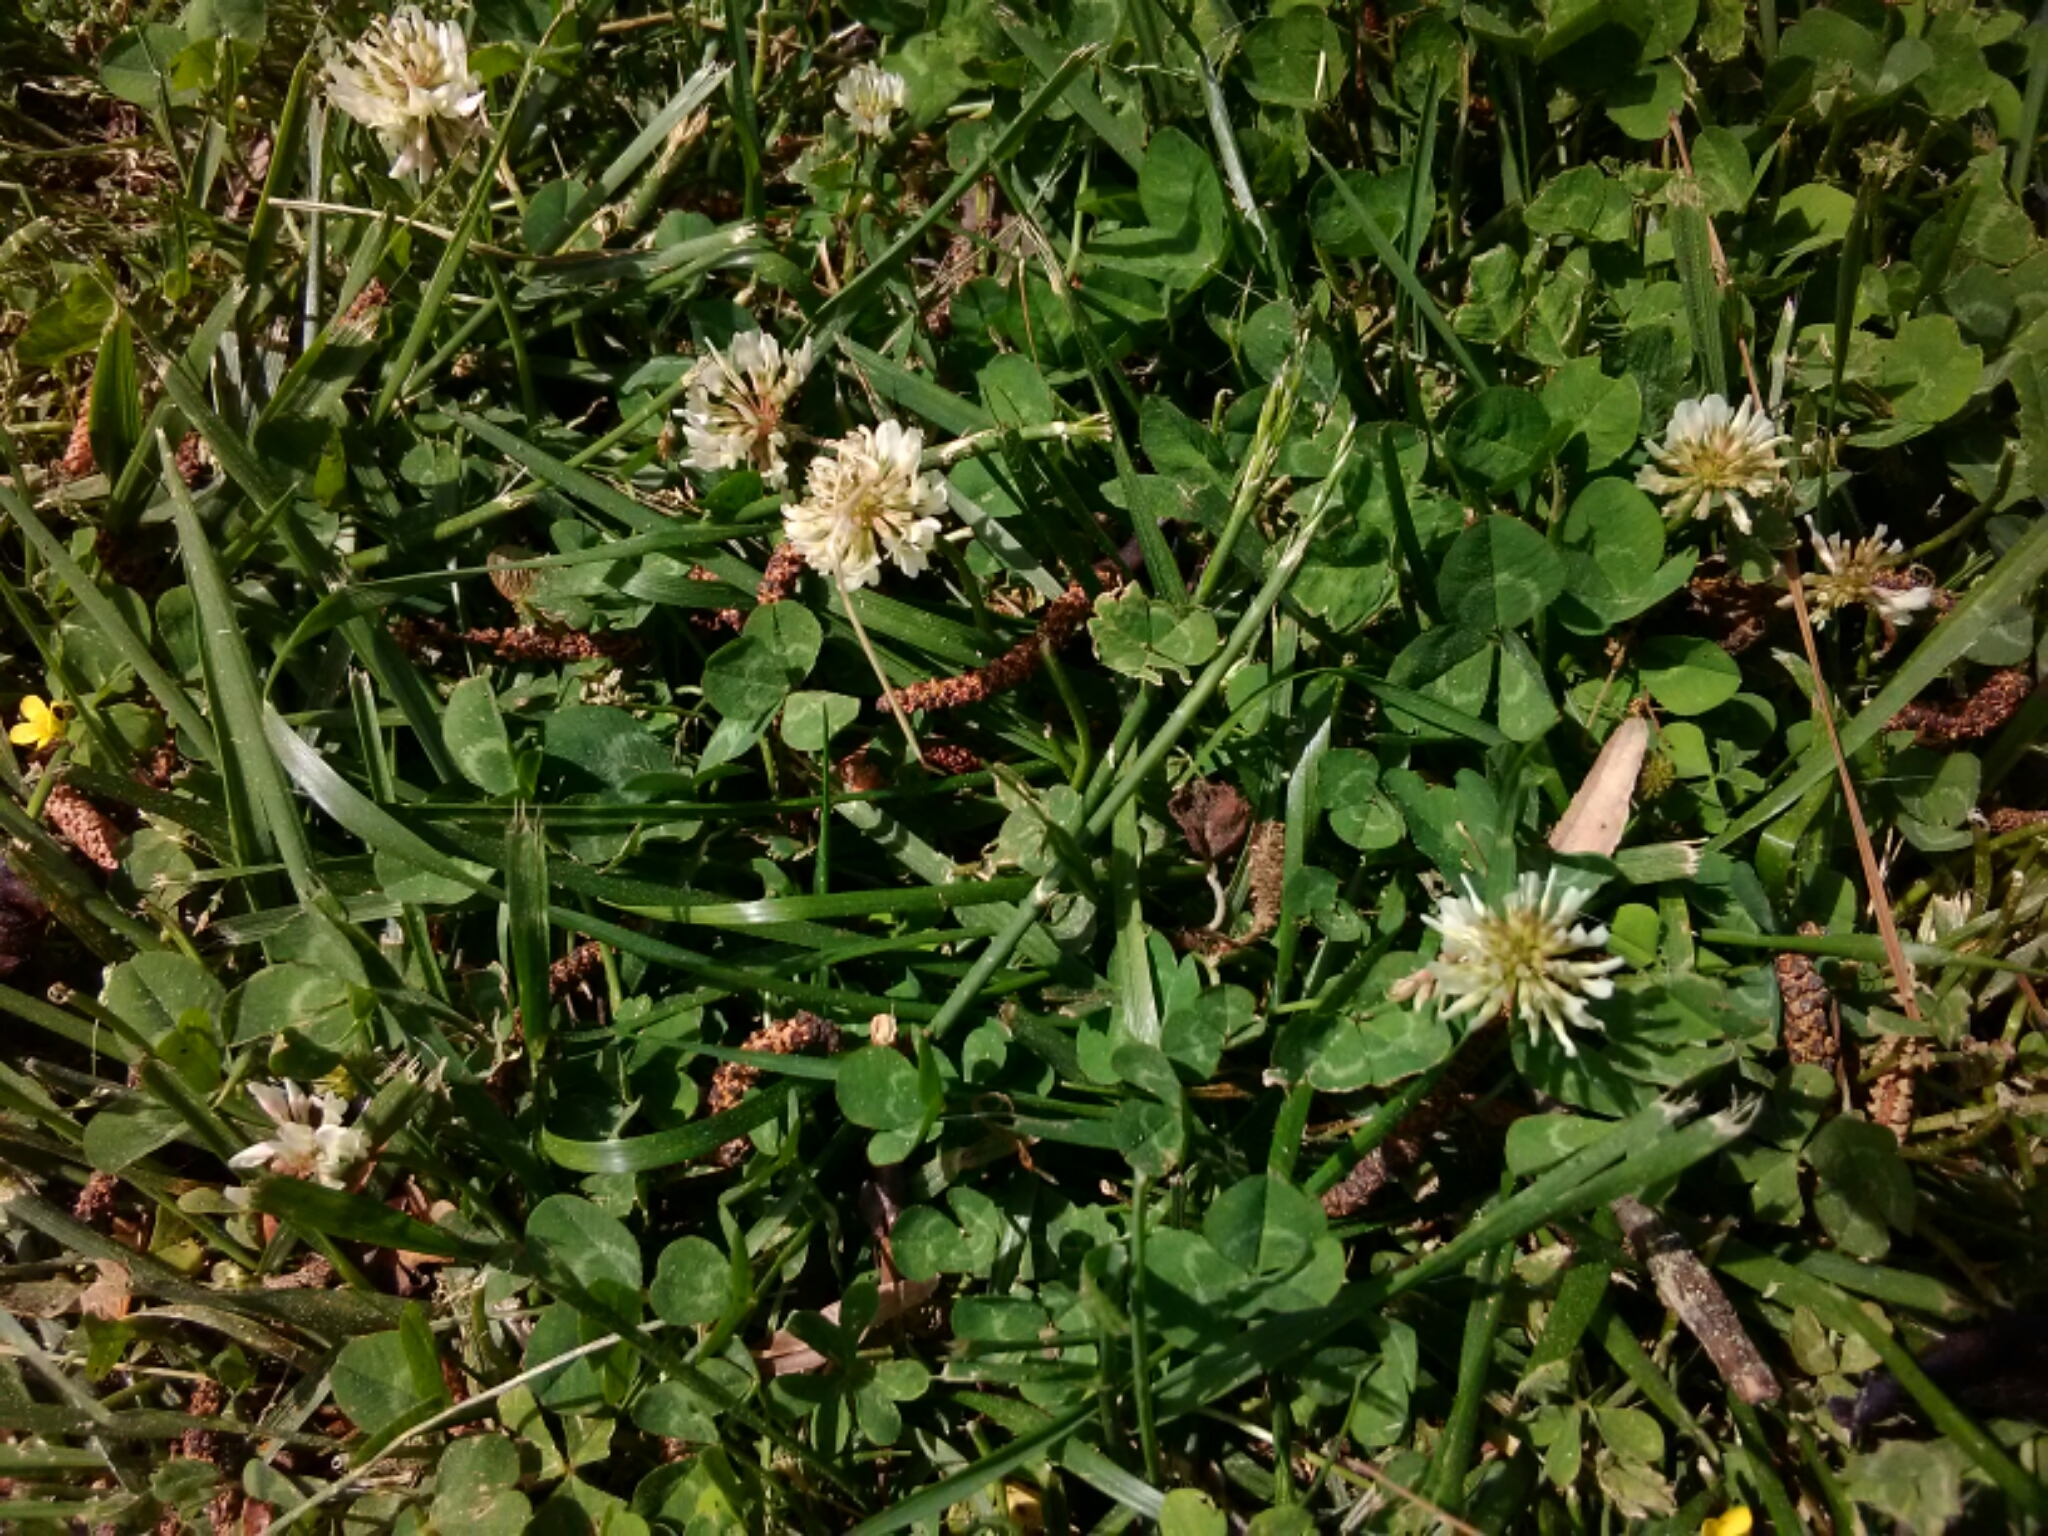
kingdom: Plantae
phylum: Tracheophyta
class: Magnoliopsida
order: Fabales
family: Fabaceae
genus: Trifolium
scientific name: Trifolium repens
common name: White clover
